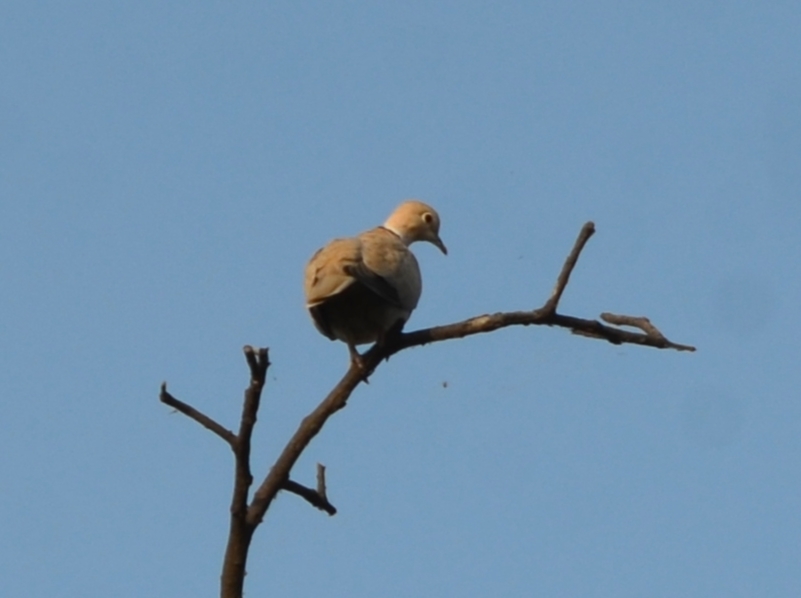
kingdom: Animalia
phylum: Chordata
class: Aves
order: Columbiformes
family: Columbidae
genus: Streptopelia
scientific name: Streptopelia decaocto
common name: Eurasian collared dove
